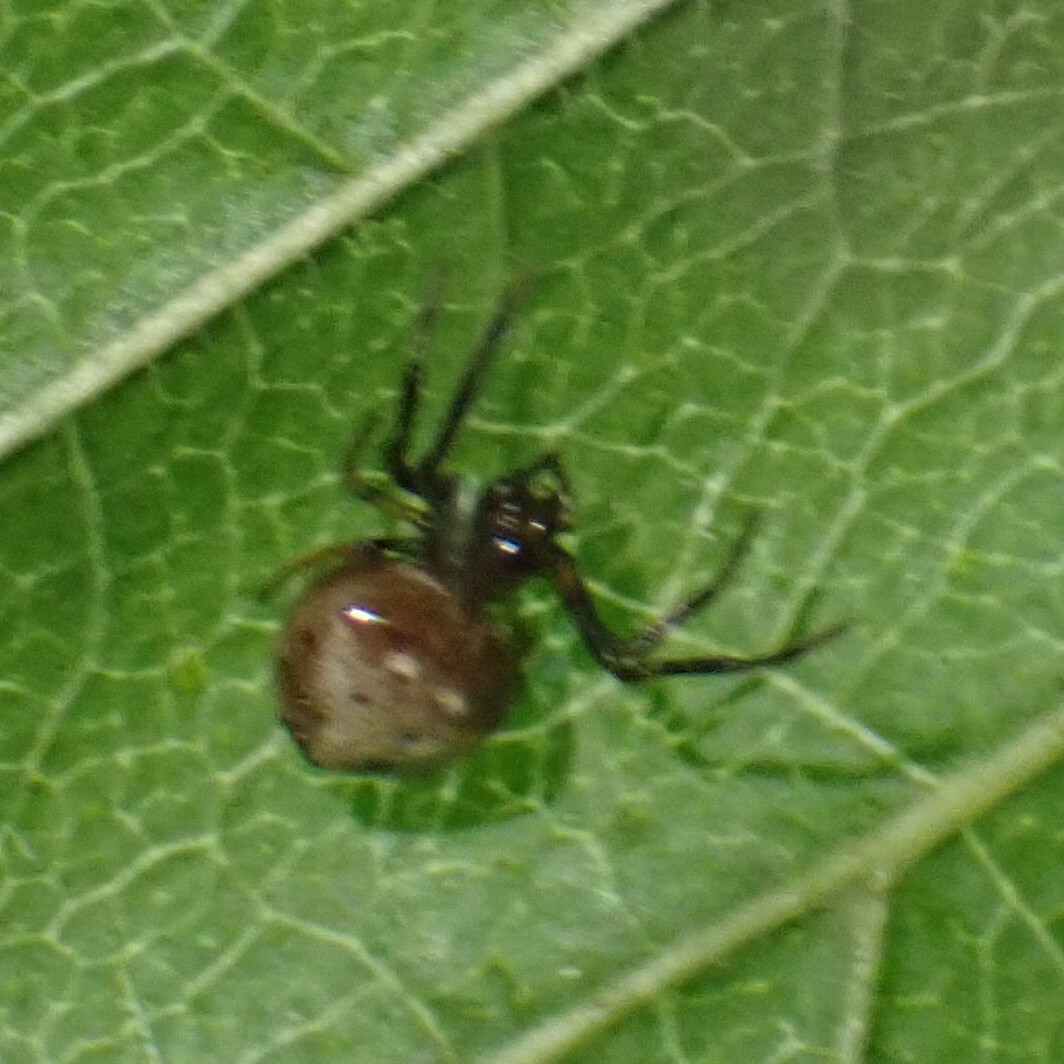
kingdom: Animalia
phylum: Arthropoda
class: Arachnida
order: Araneae
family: Araneidae
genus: Verrucosa
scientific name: Verrucosa arenata
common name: Orb weavers
